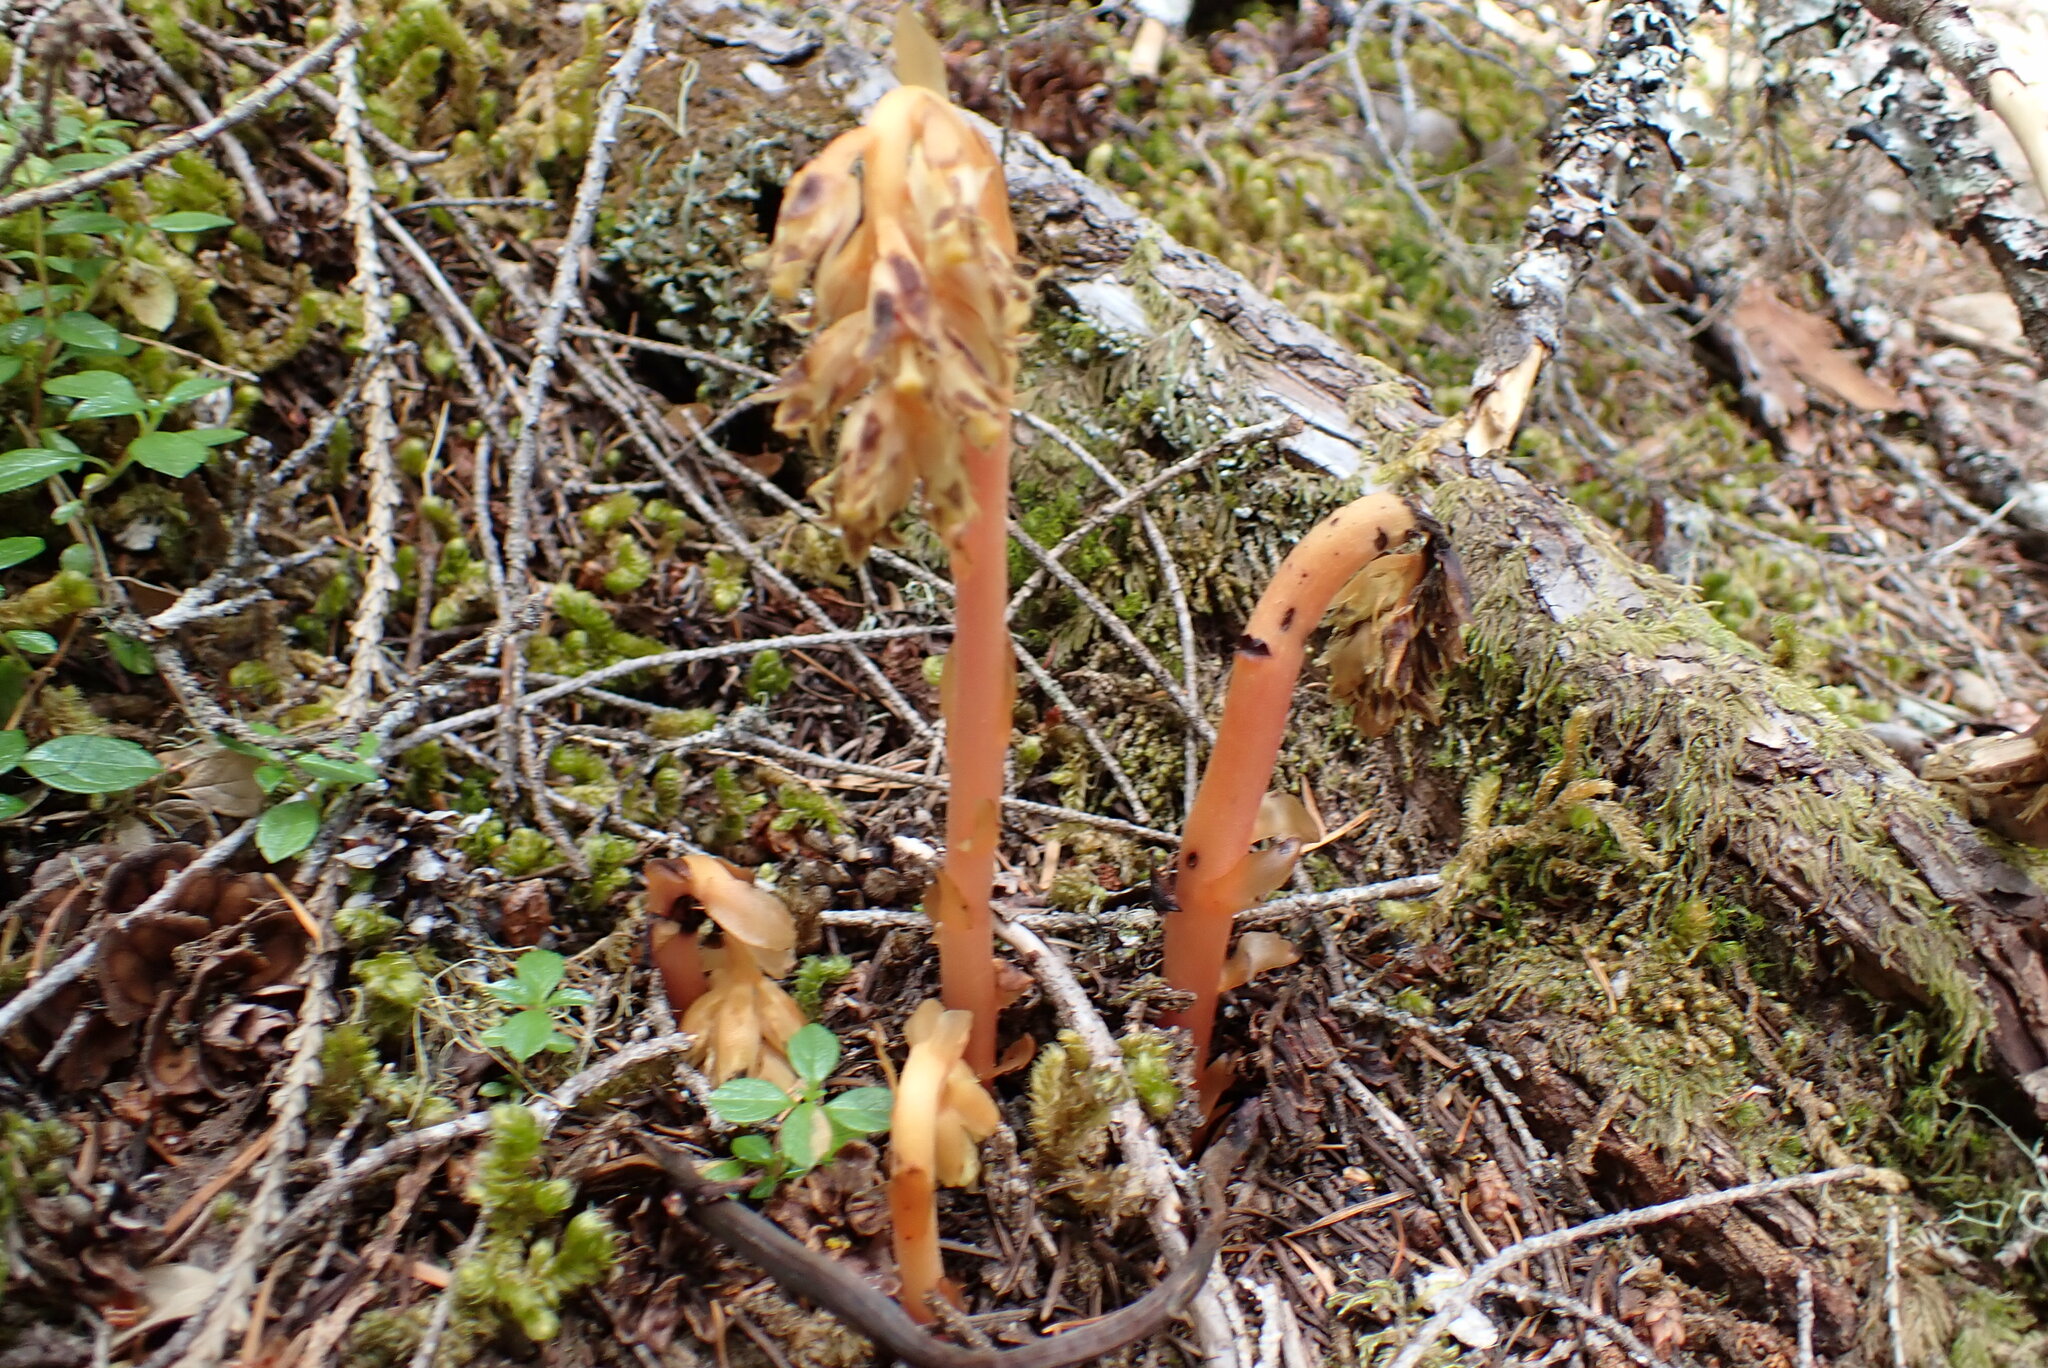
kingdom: Plantae
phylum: Tracheophyta
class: Magnoliopsida
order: Ericales
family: Ericaceae
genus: Hypopitys
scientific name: Hypopitys monotropa
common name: Yellow bird's-nest
